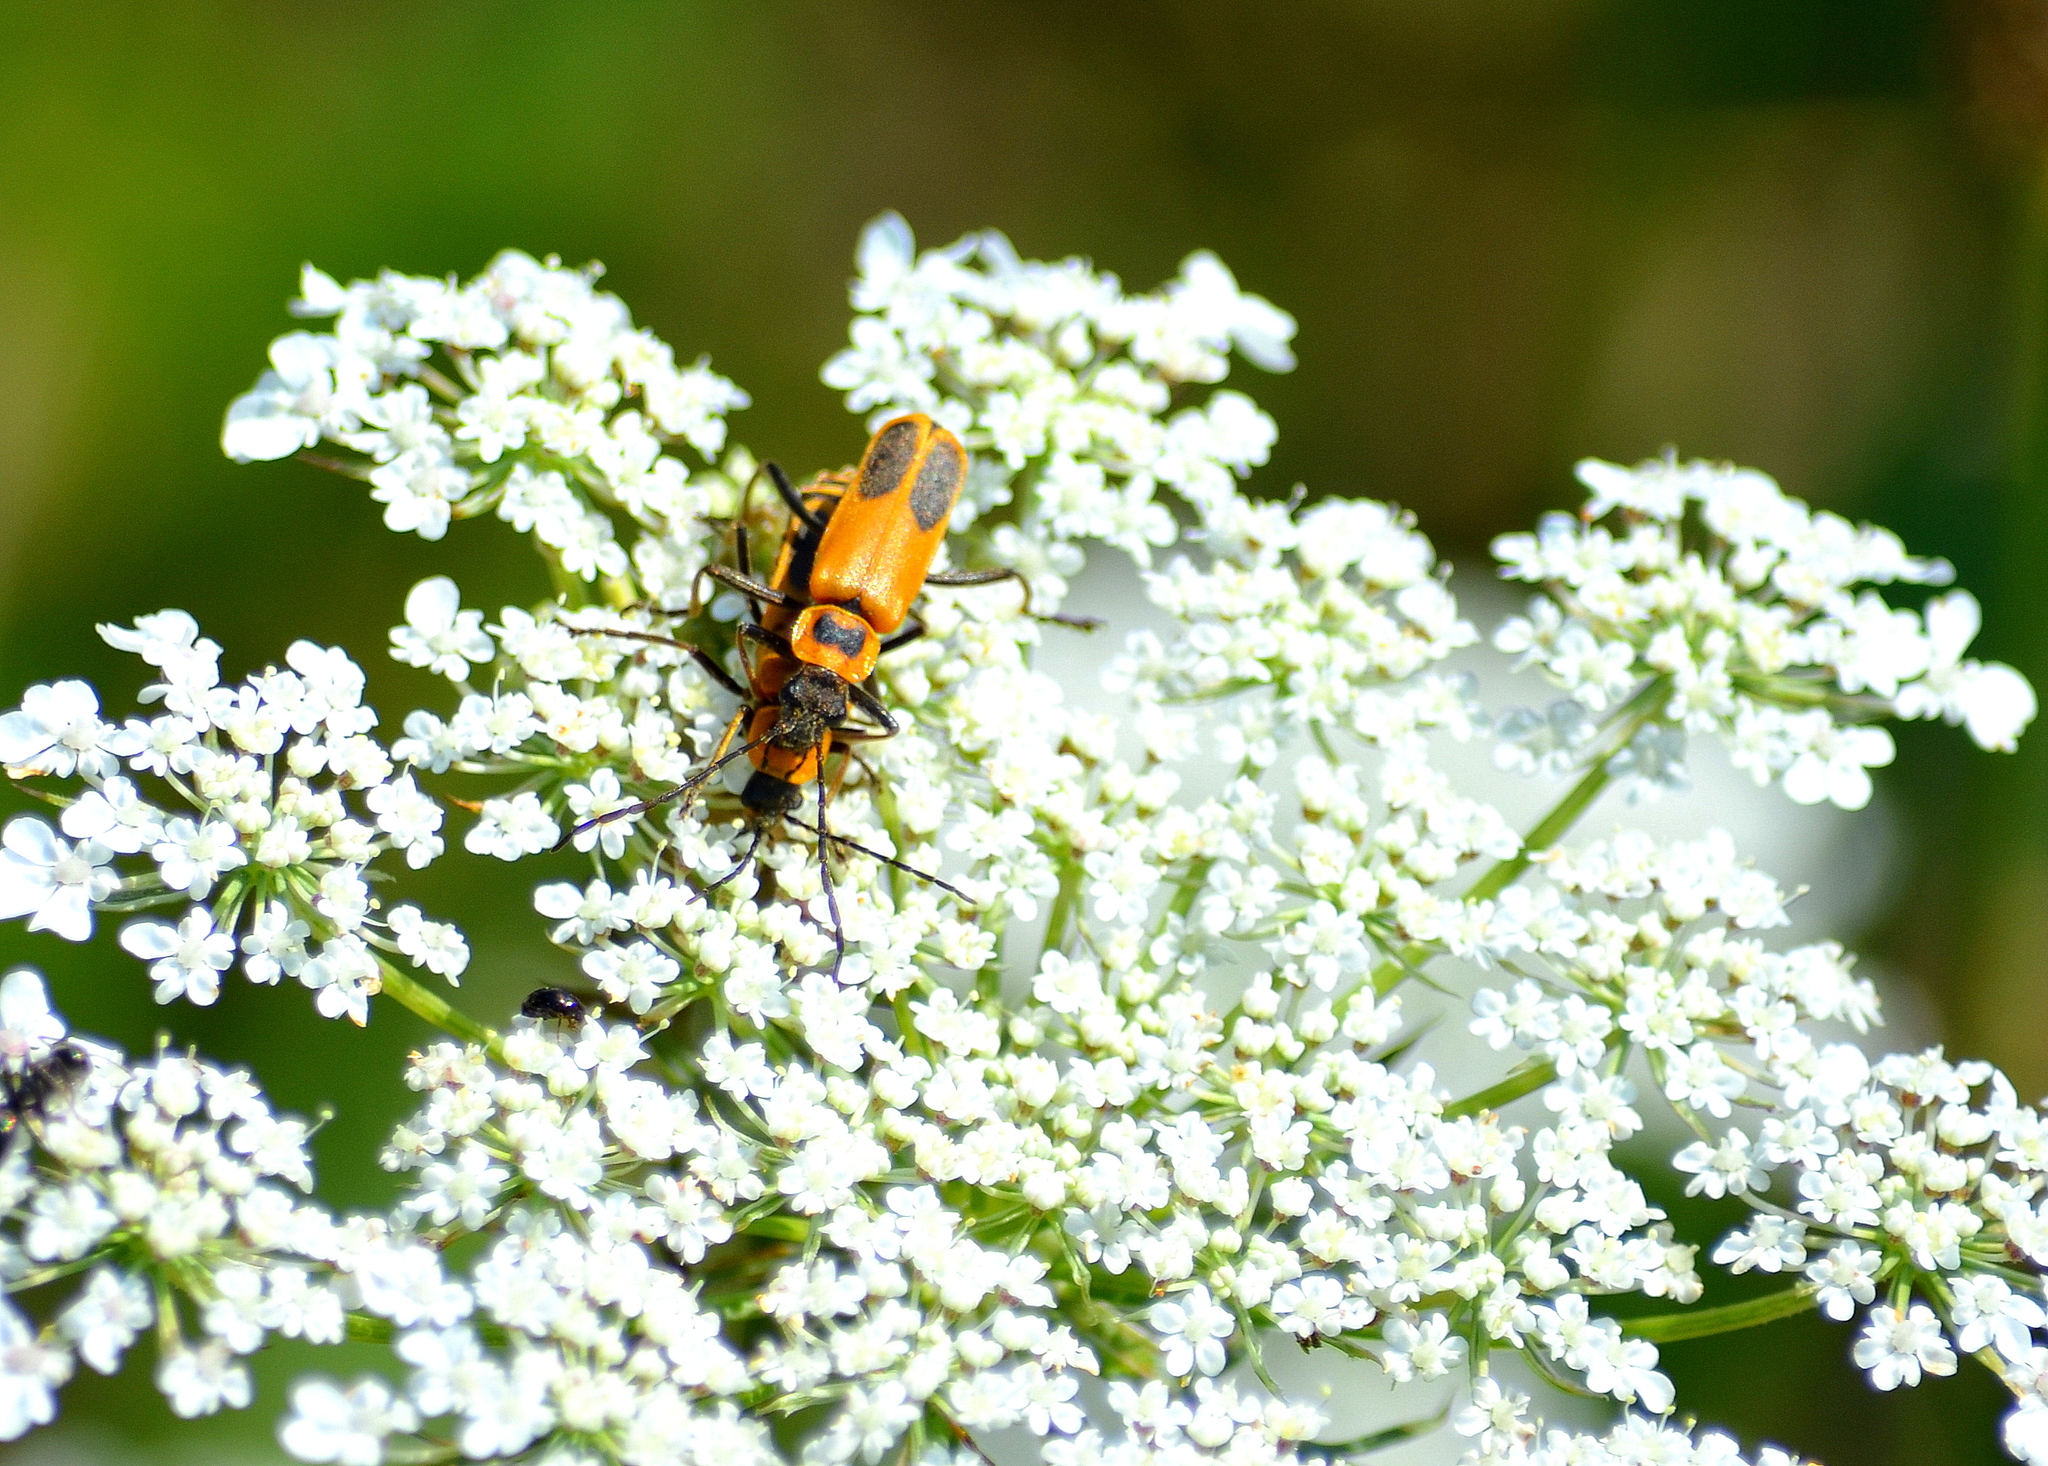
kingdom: Animalia
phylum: Arthropoda
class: Insecta
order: Coleoptera
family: Cantharidae
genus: Chauliognathus
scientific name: Chauliognathus pensylvanicus
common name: Goldenrod soldier beetle
